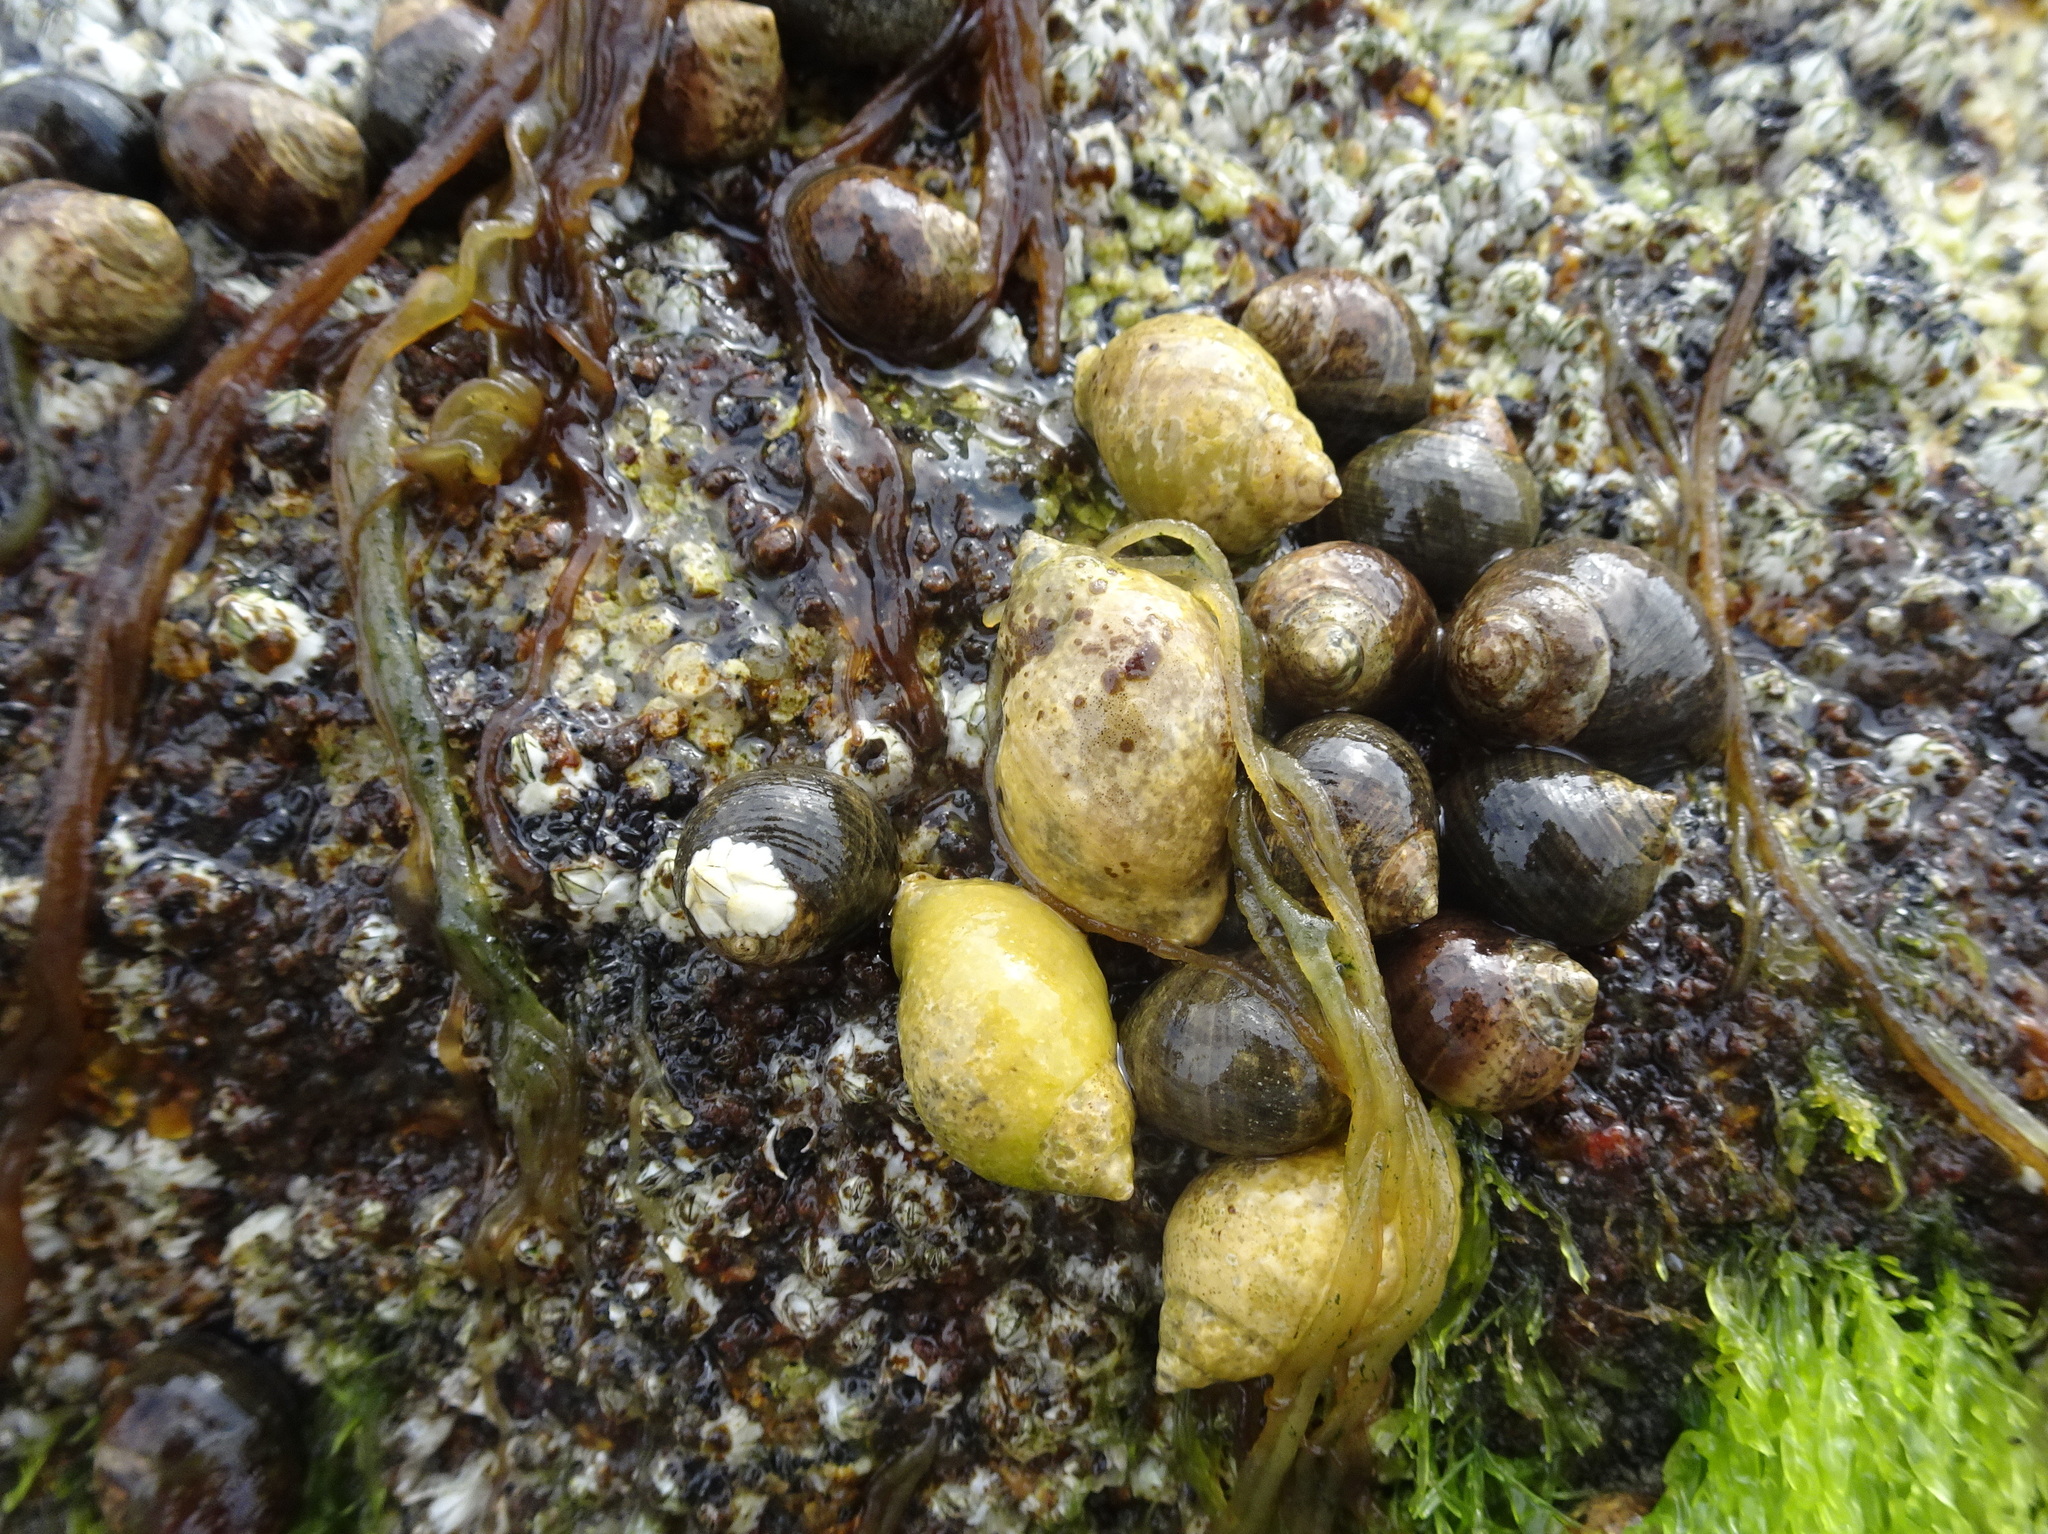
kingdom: Animalia
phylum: Mollusca
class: Gastropoda
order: Neogastropoda
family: Muricidae
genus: Nucella
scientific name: Nucella lapillus
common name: Dog whelk
